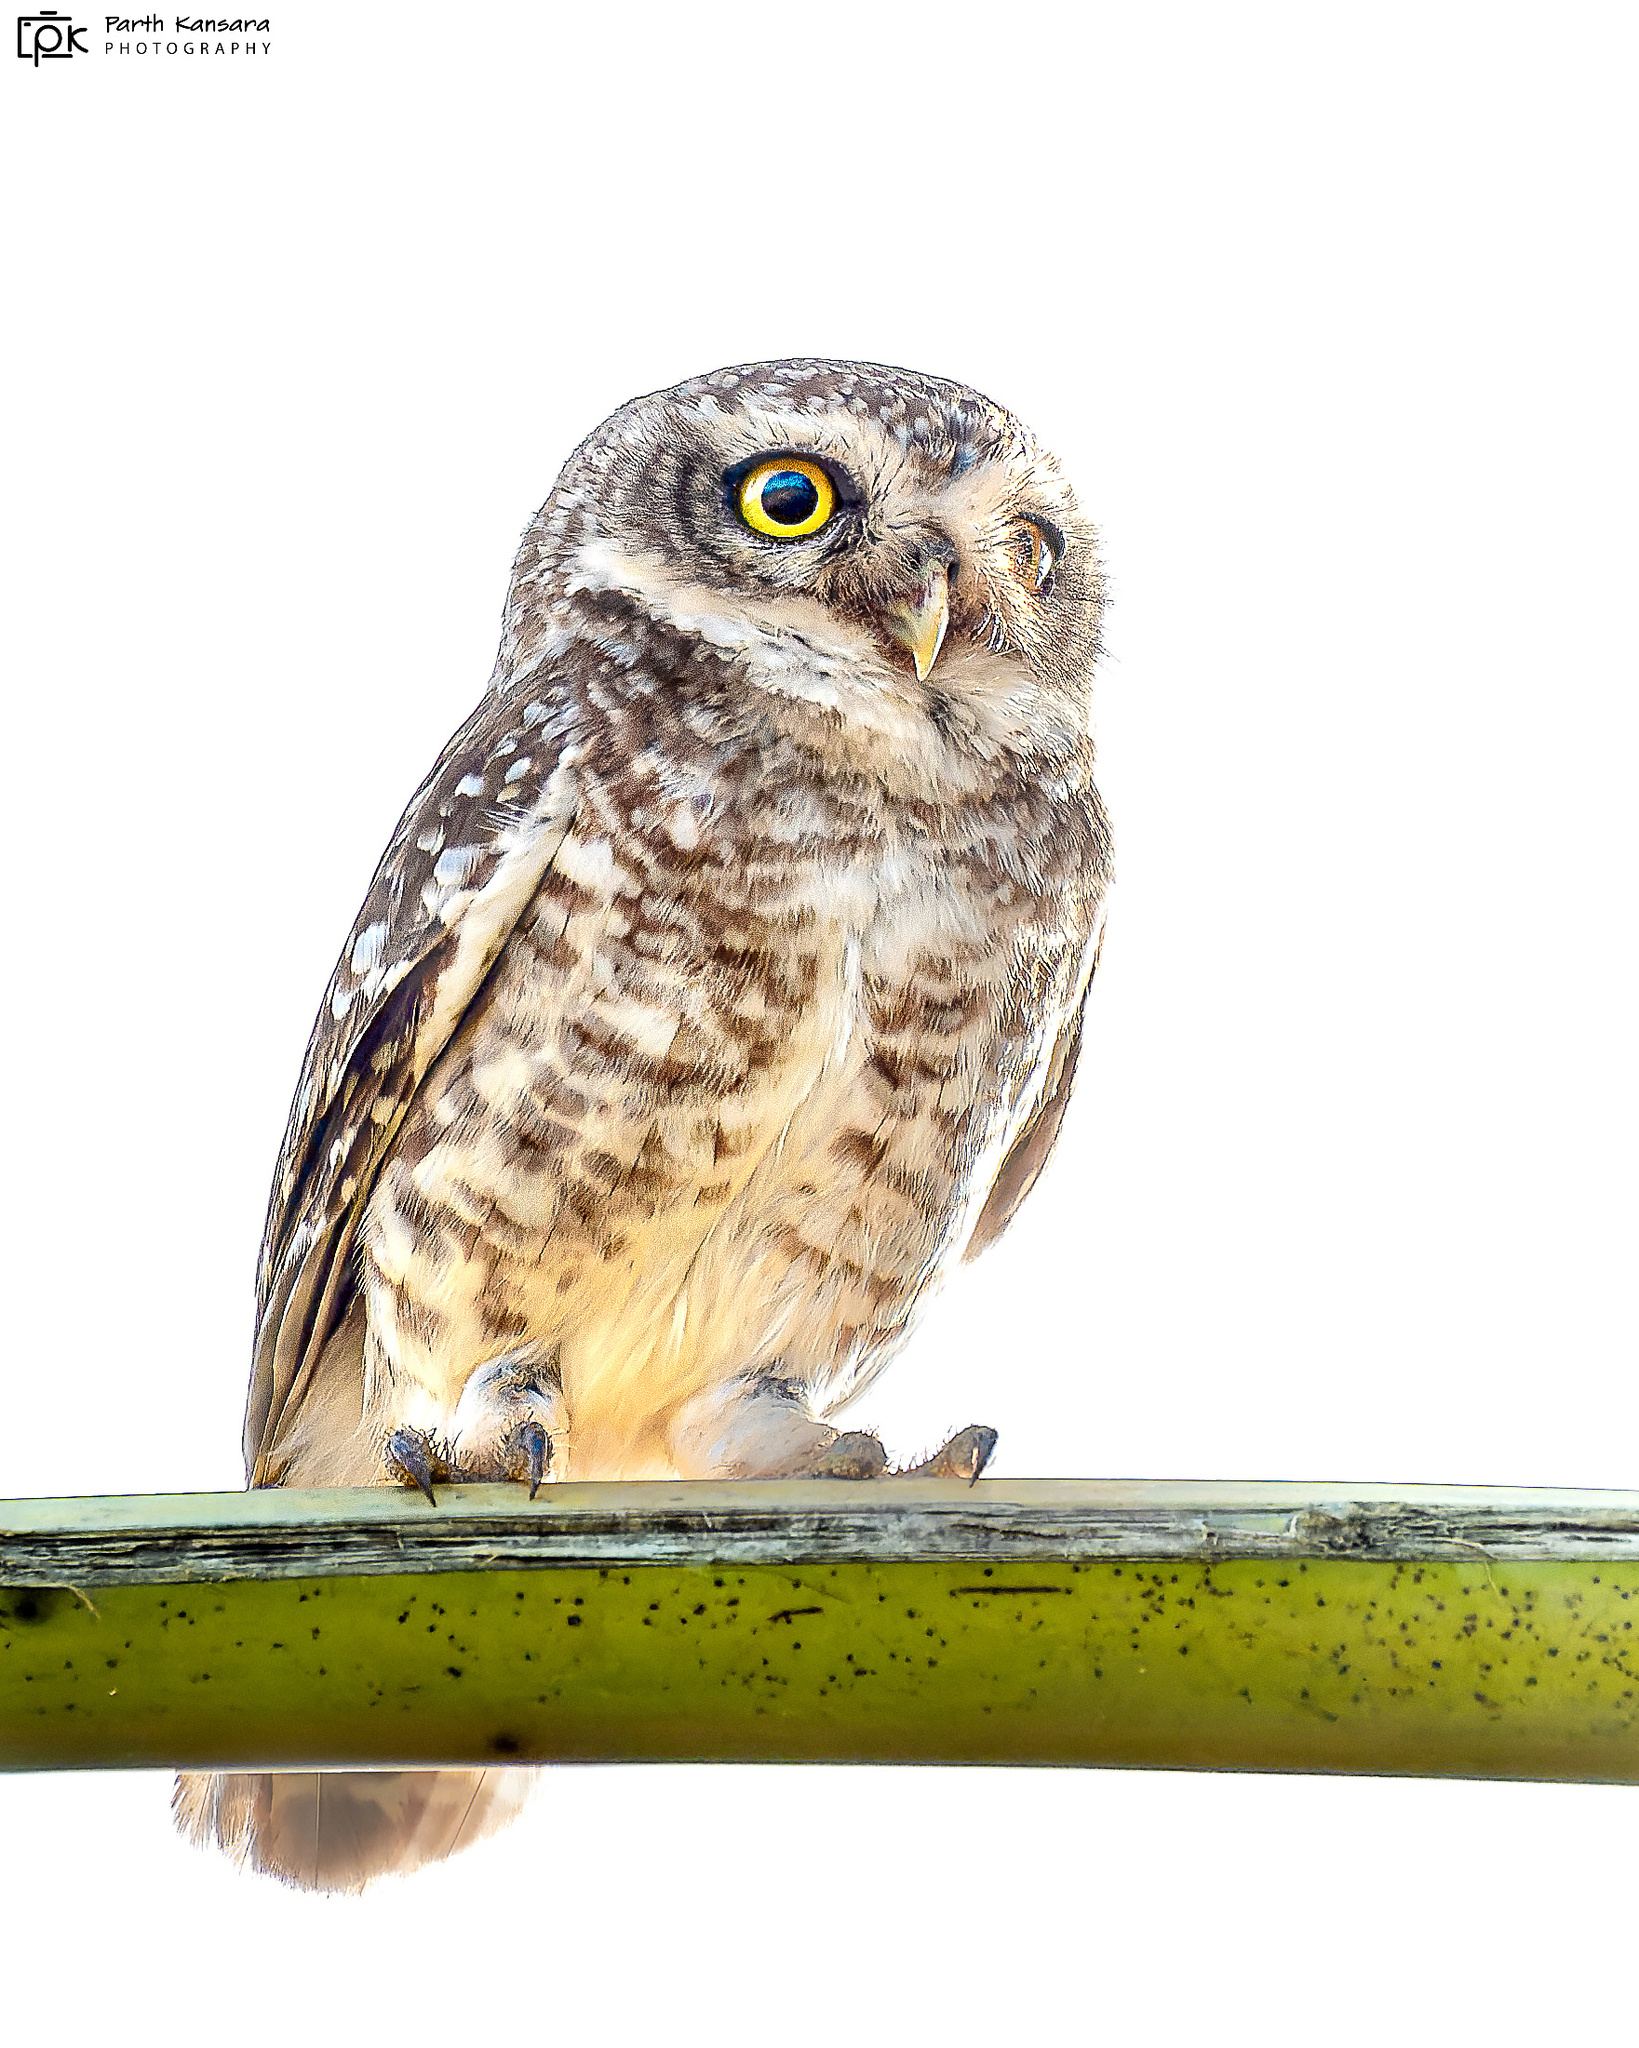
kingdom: Animalia
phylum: Chordata
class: Aves
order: Strigiformes
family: Strigidae
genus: Athene
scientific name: Athene brama
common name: Spotted owlet
